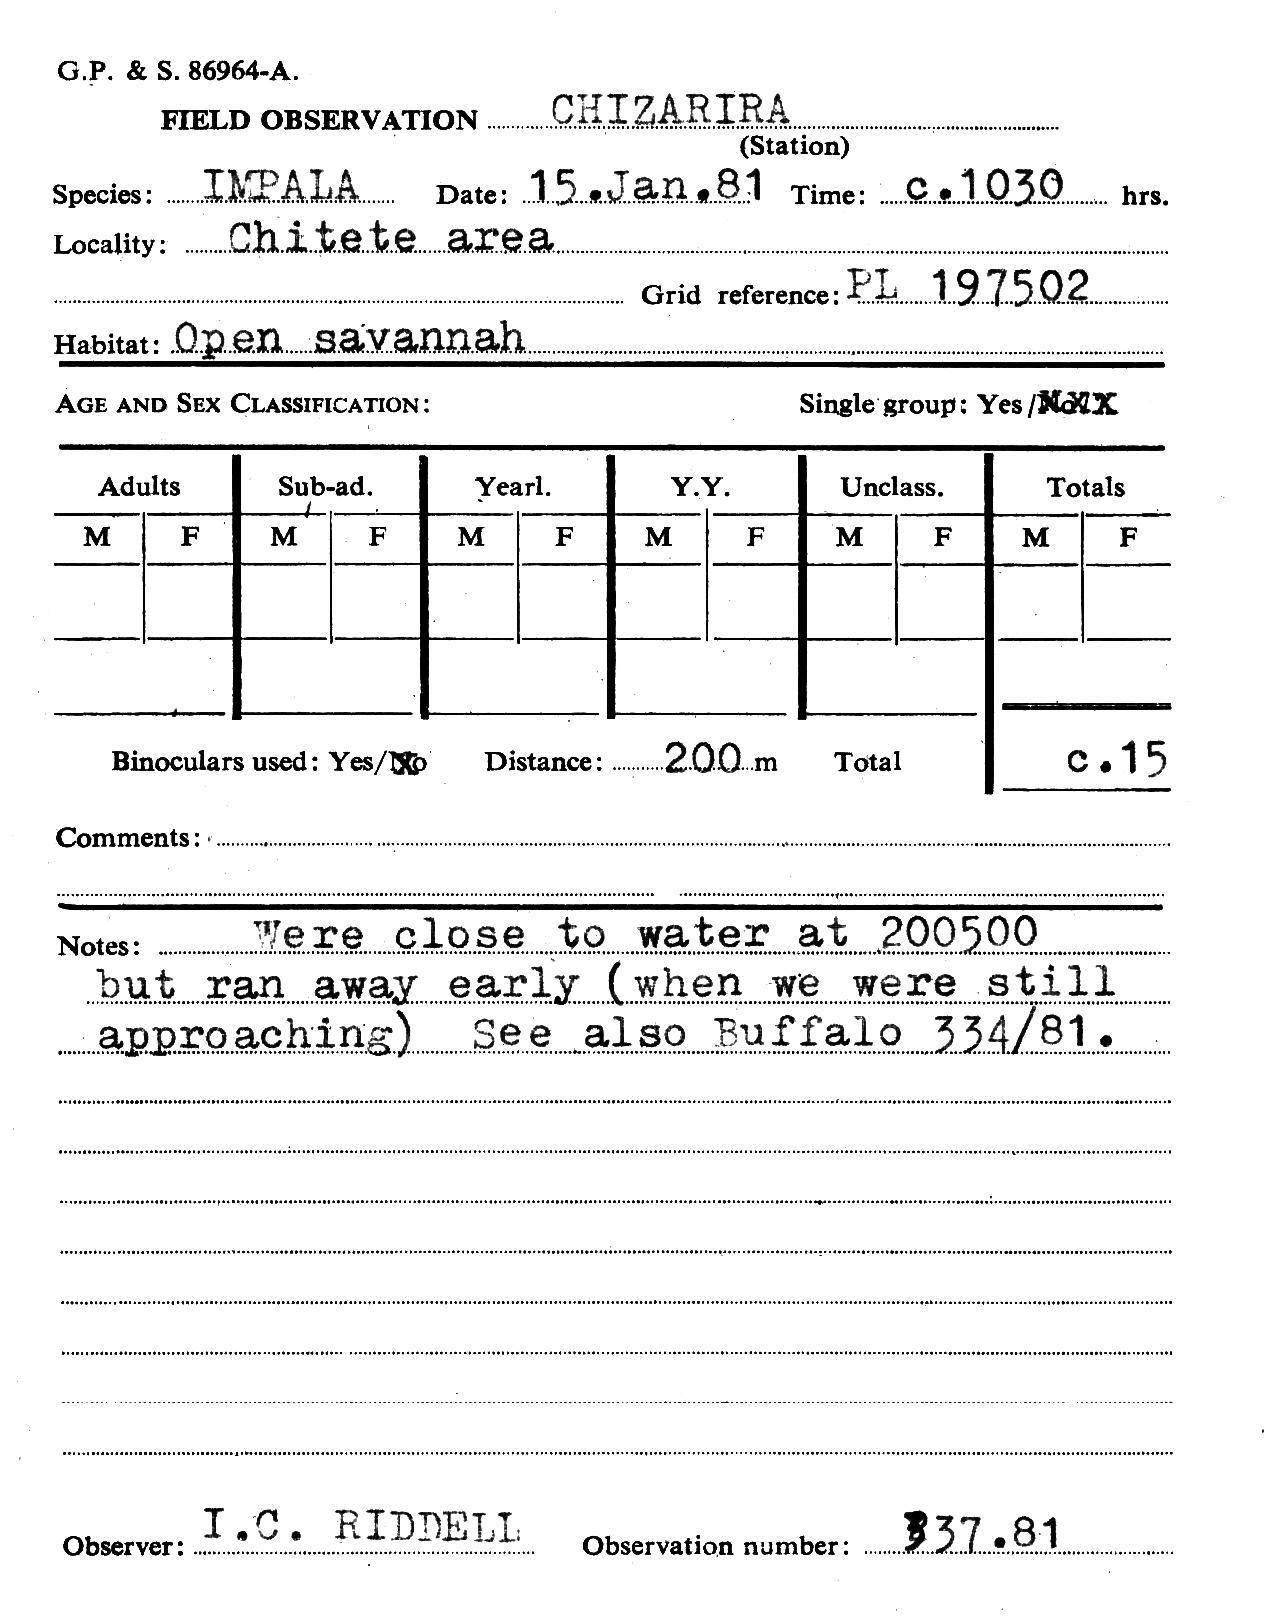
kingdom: Animalia
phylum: Chordata
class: Mammalia
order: Artiodactyla
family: Bovidae
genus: Aepyceros
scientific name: Aepyceros melampus
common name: Impala
